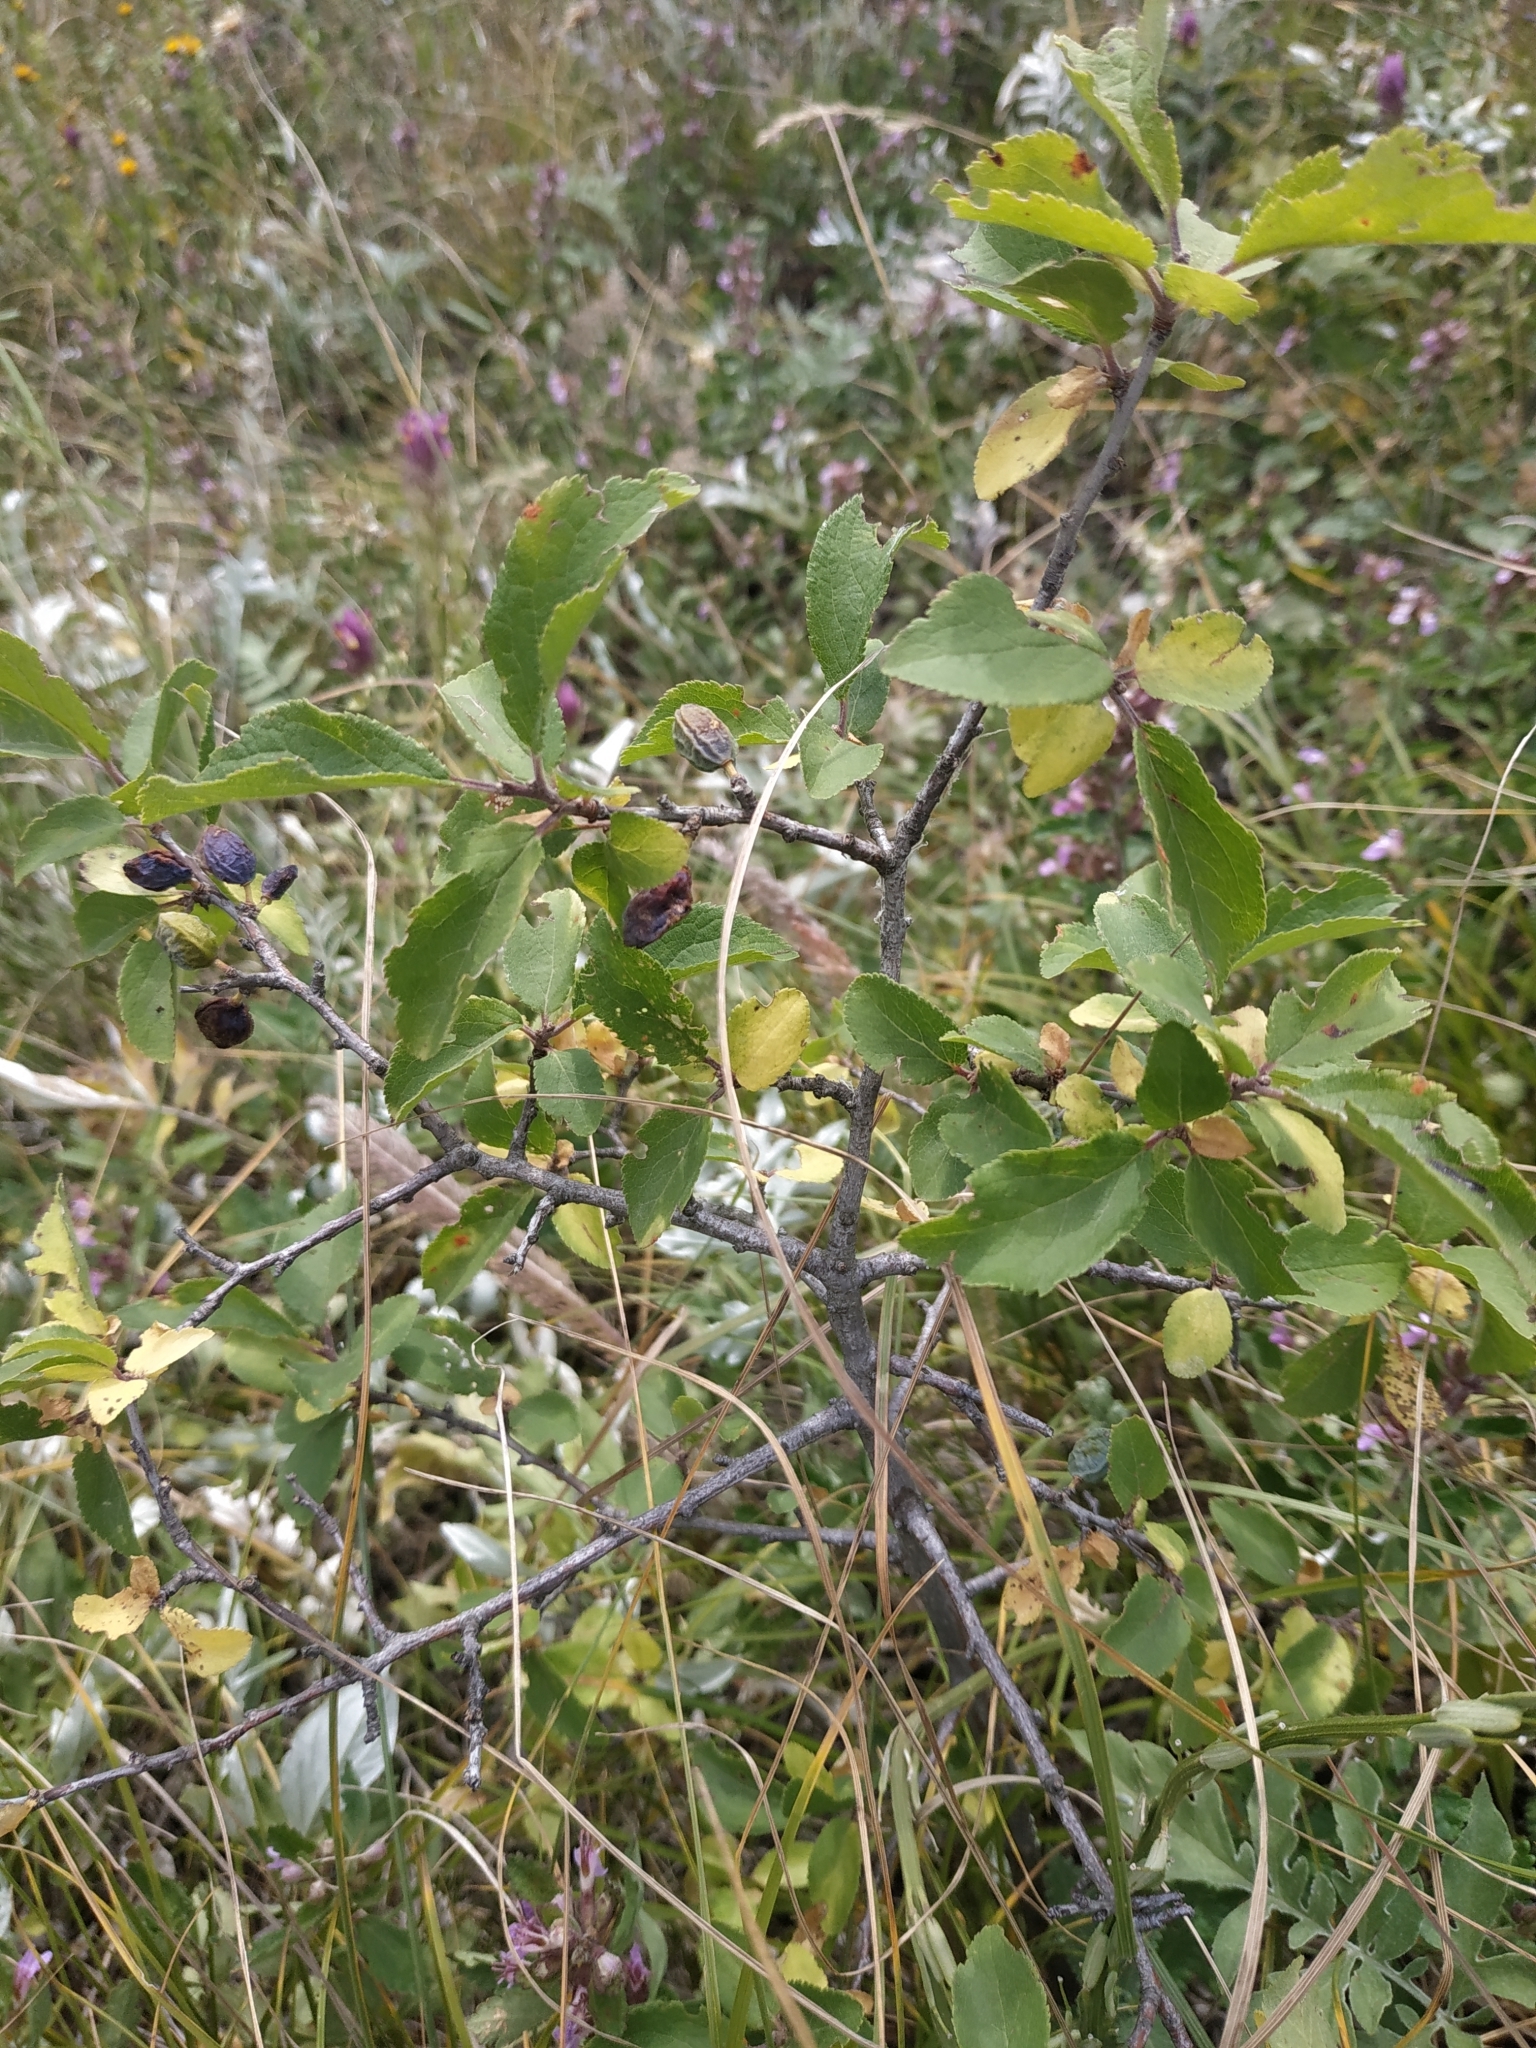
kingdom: Plantae
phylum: Tracheophyta
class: Magnoliopsida
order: Rosales
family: Rosaceae
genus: Prunus
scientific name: Prunus spinosa
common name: Blackthorn
